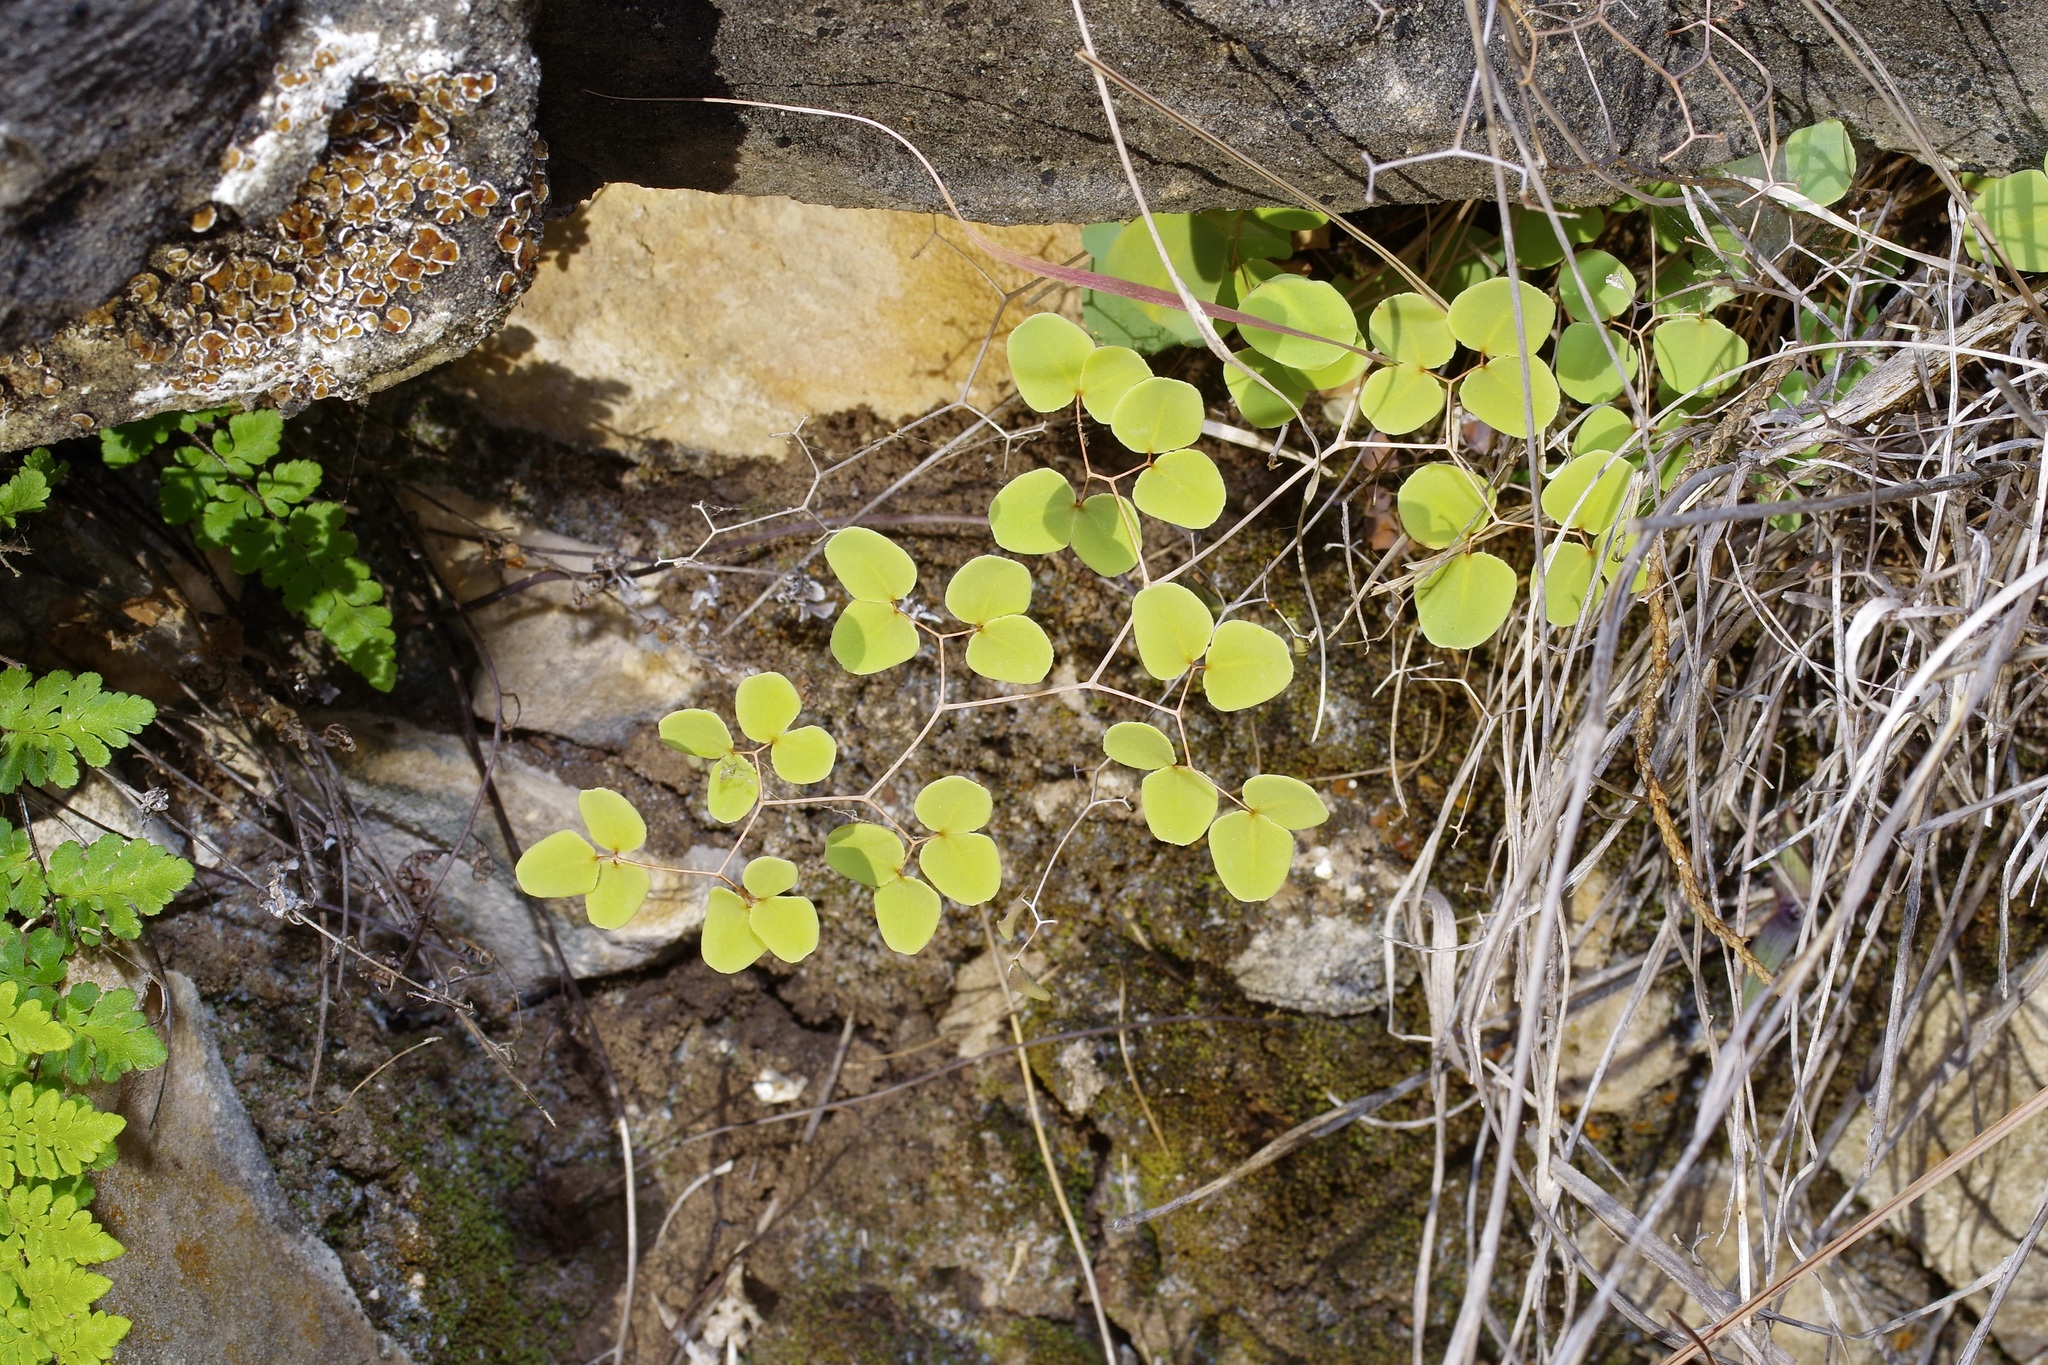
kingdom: Plantae
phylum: Tracheophyta
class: Polypodiopsida
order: Polypodiales
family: Pteridaceae
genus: Pellaea
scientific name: Pellaea ovata
